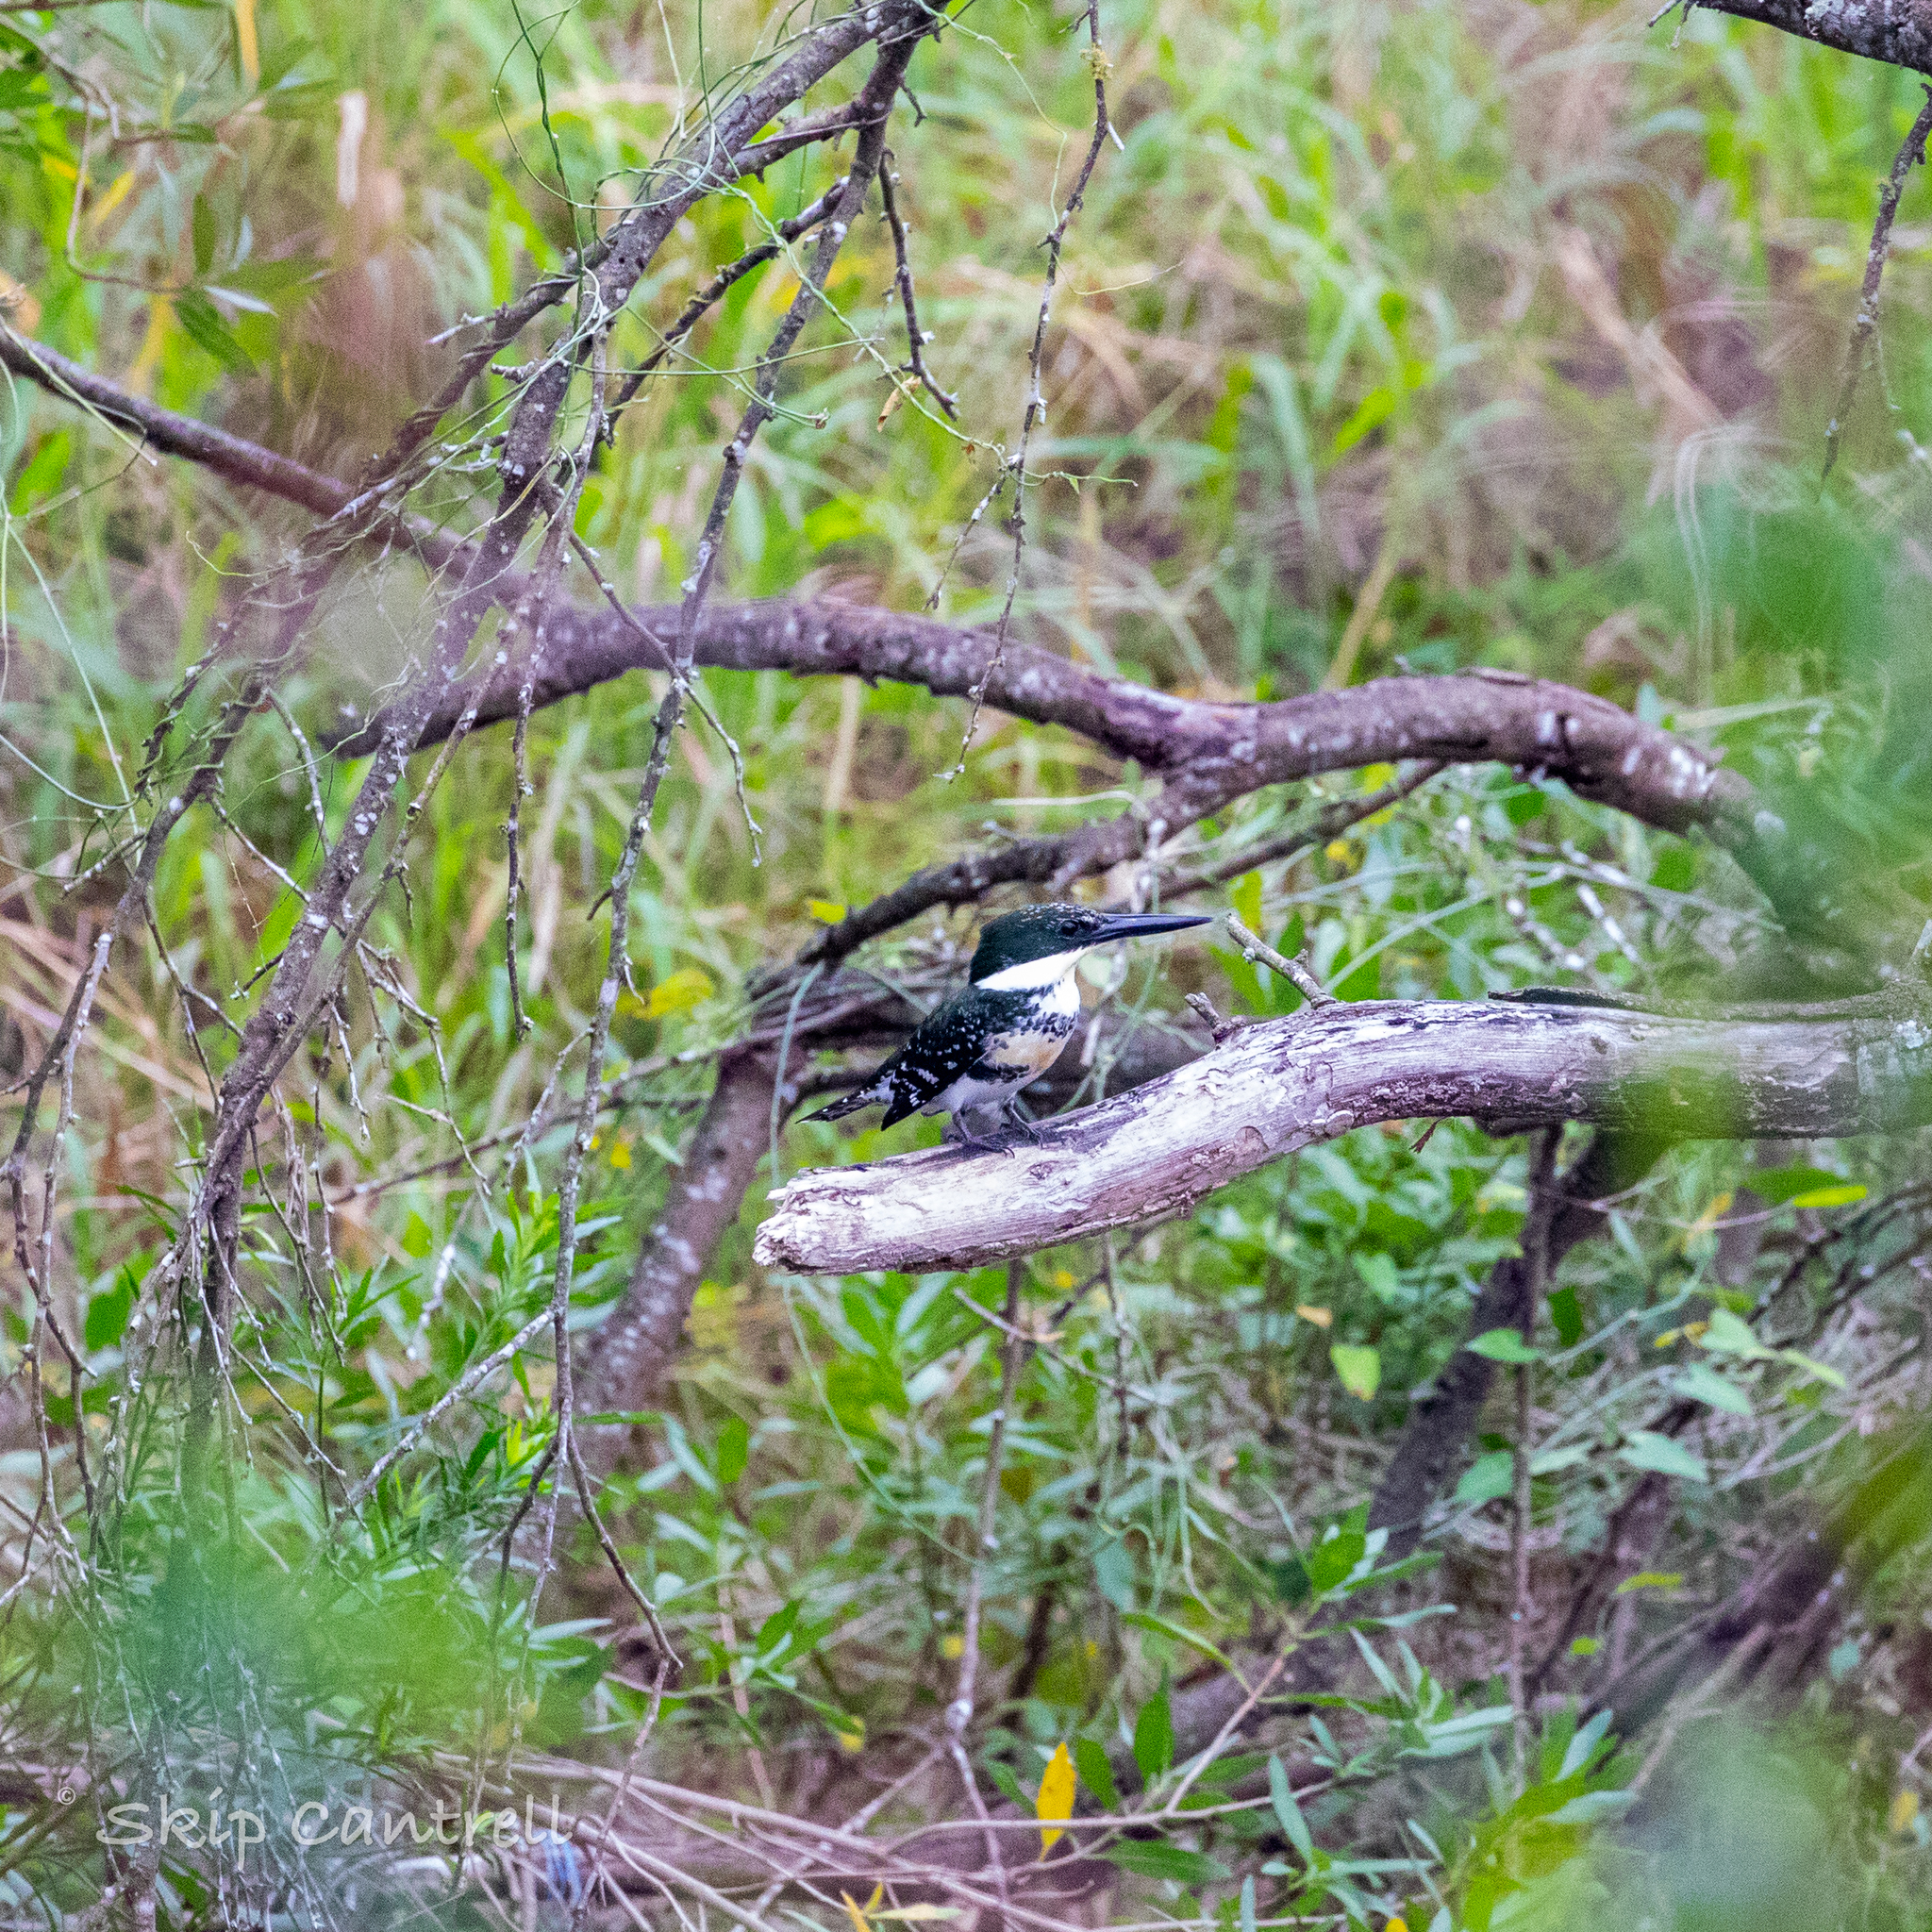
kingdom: Animalia
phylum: Chordata
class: Aves
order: Coraciiformes
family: Alcedinidae
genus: Chloroceryle
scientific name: Chloroceryle americana
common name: Green kingfisher
